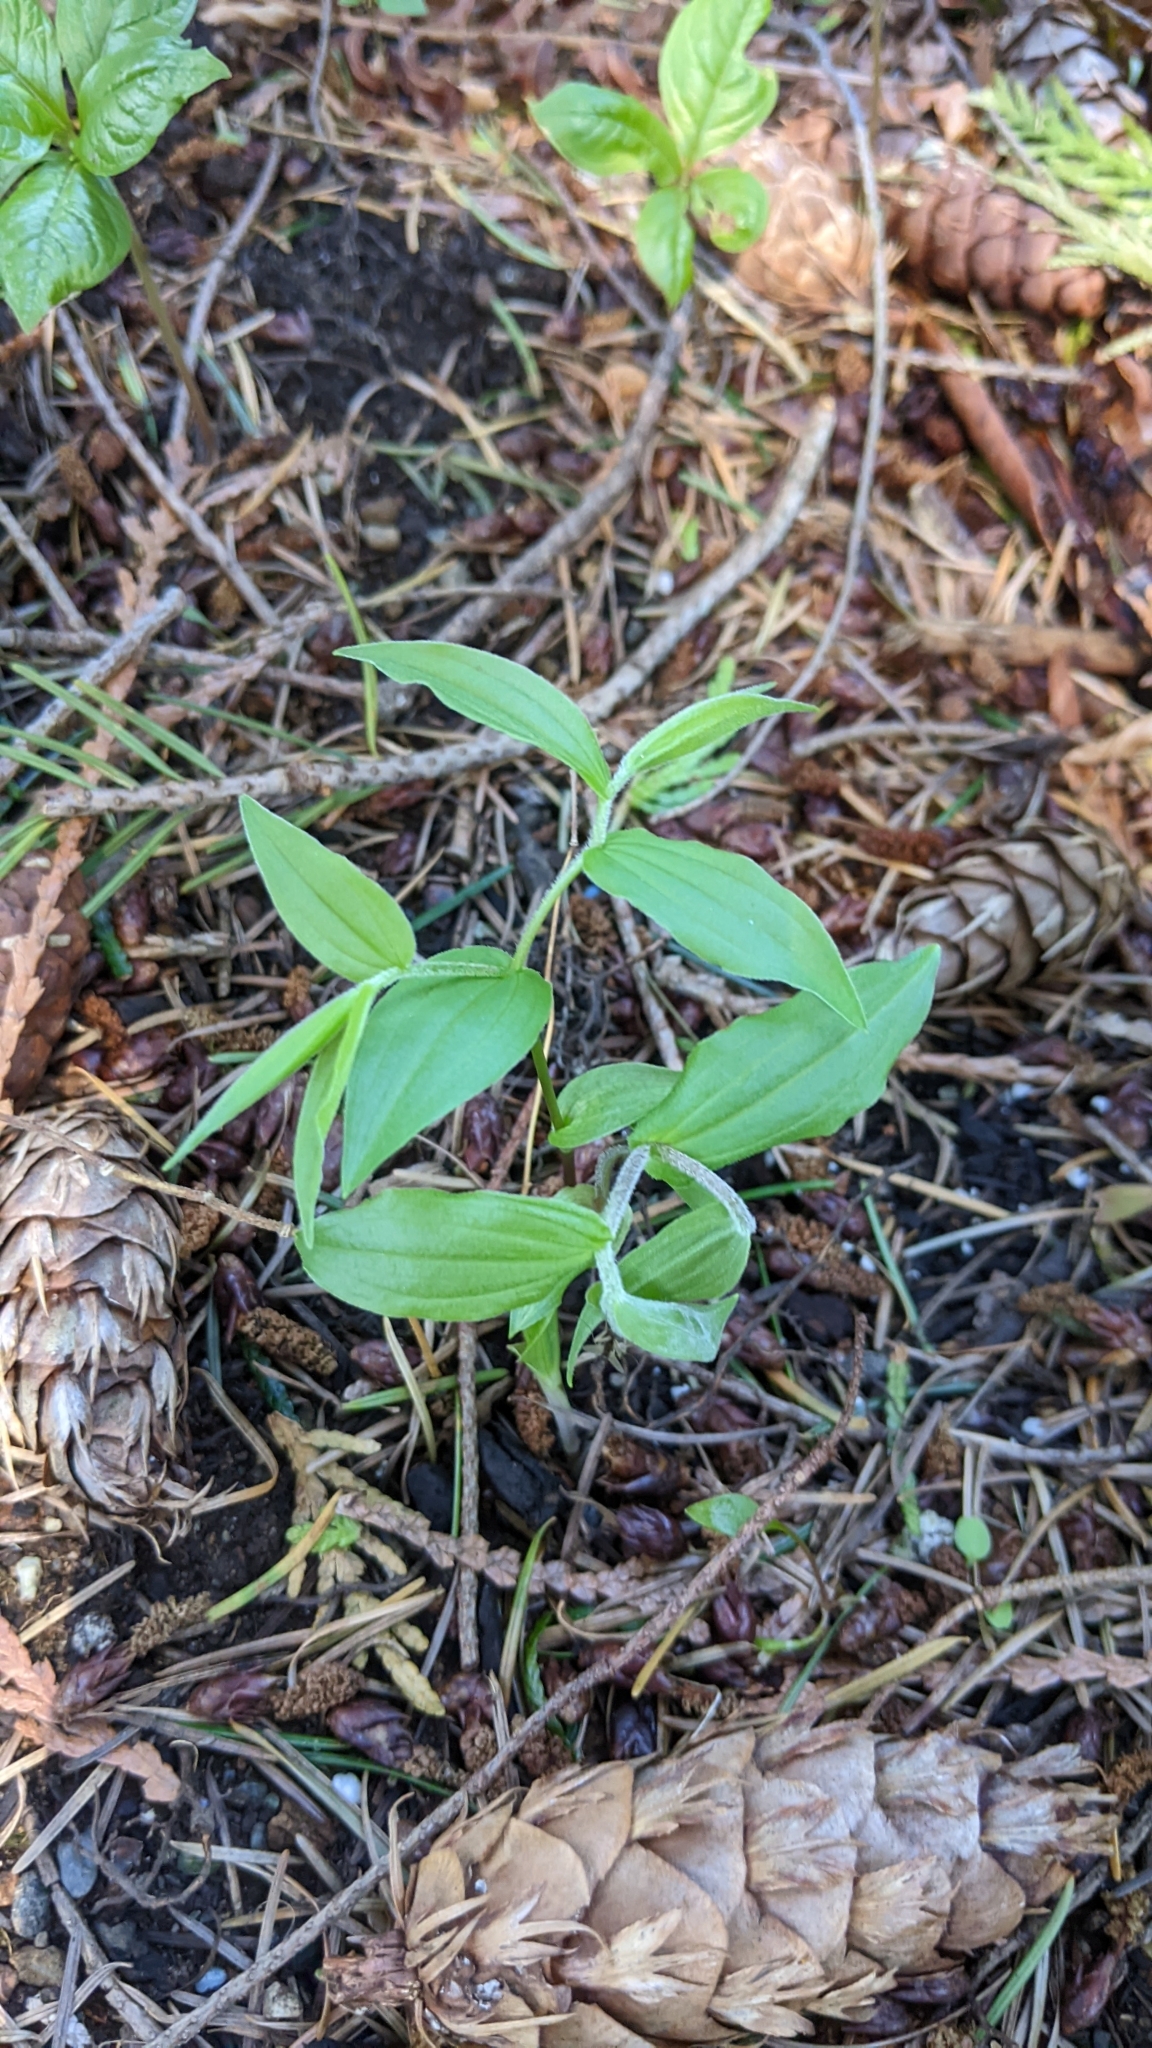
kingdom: Plantae
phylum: Tracheophyta
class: Liliopsida
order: Liliales
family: Liliaceae
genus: Prosartes
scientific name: Prosartes hookeri
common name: Fairy-bells
